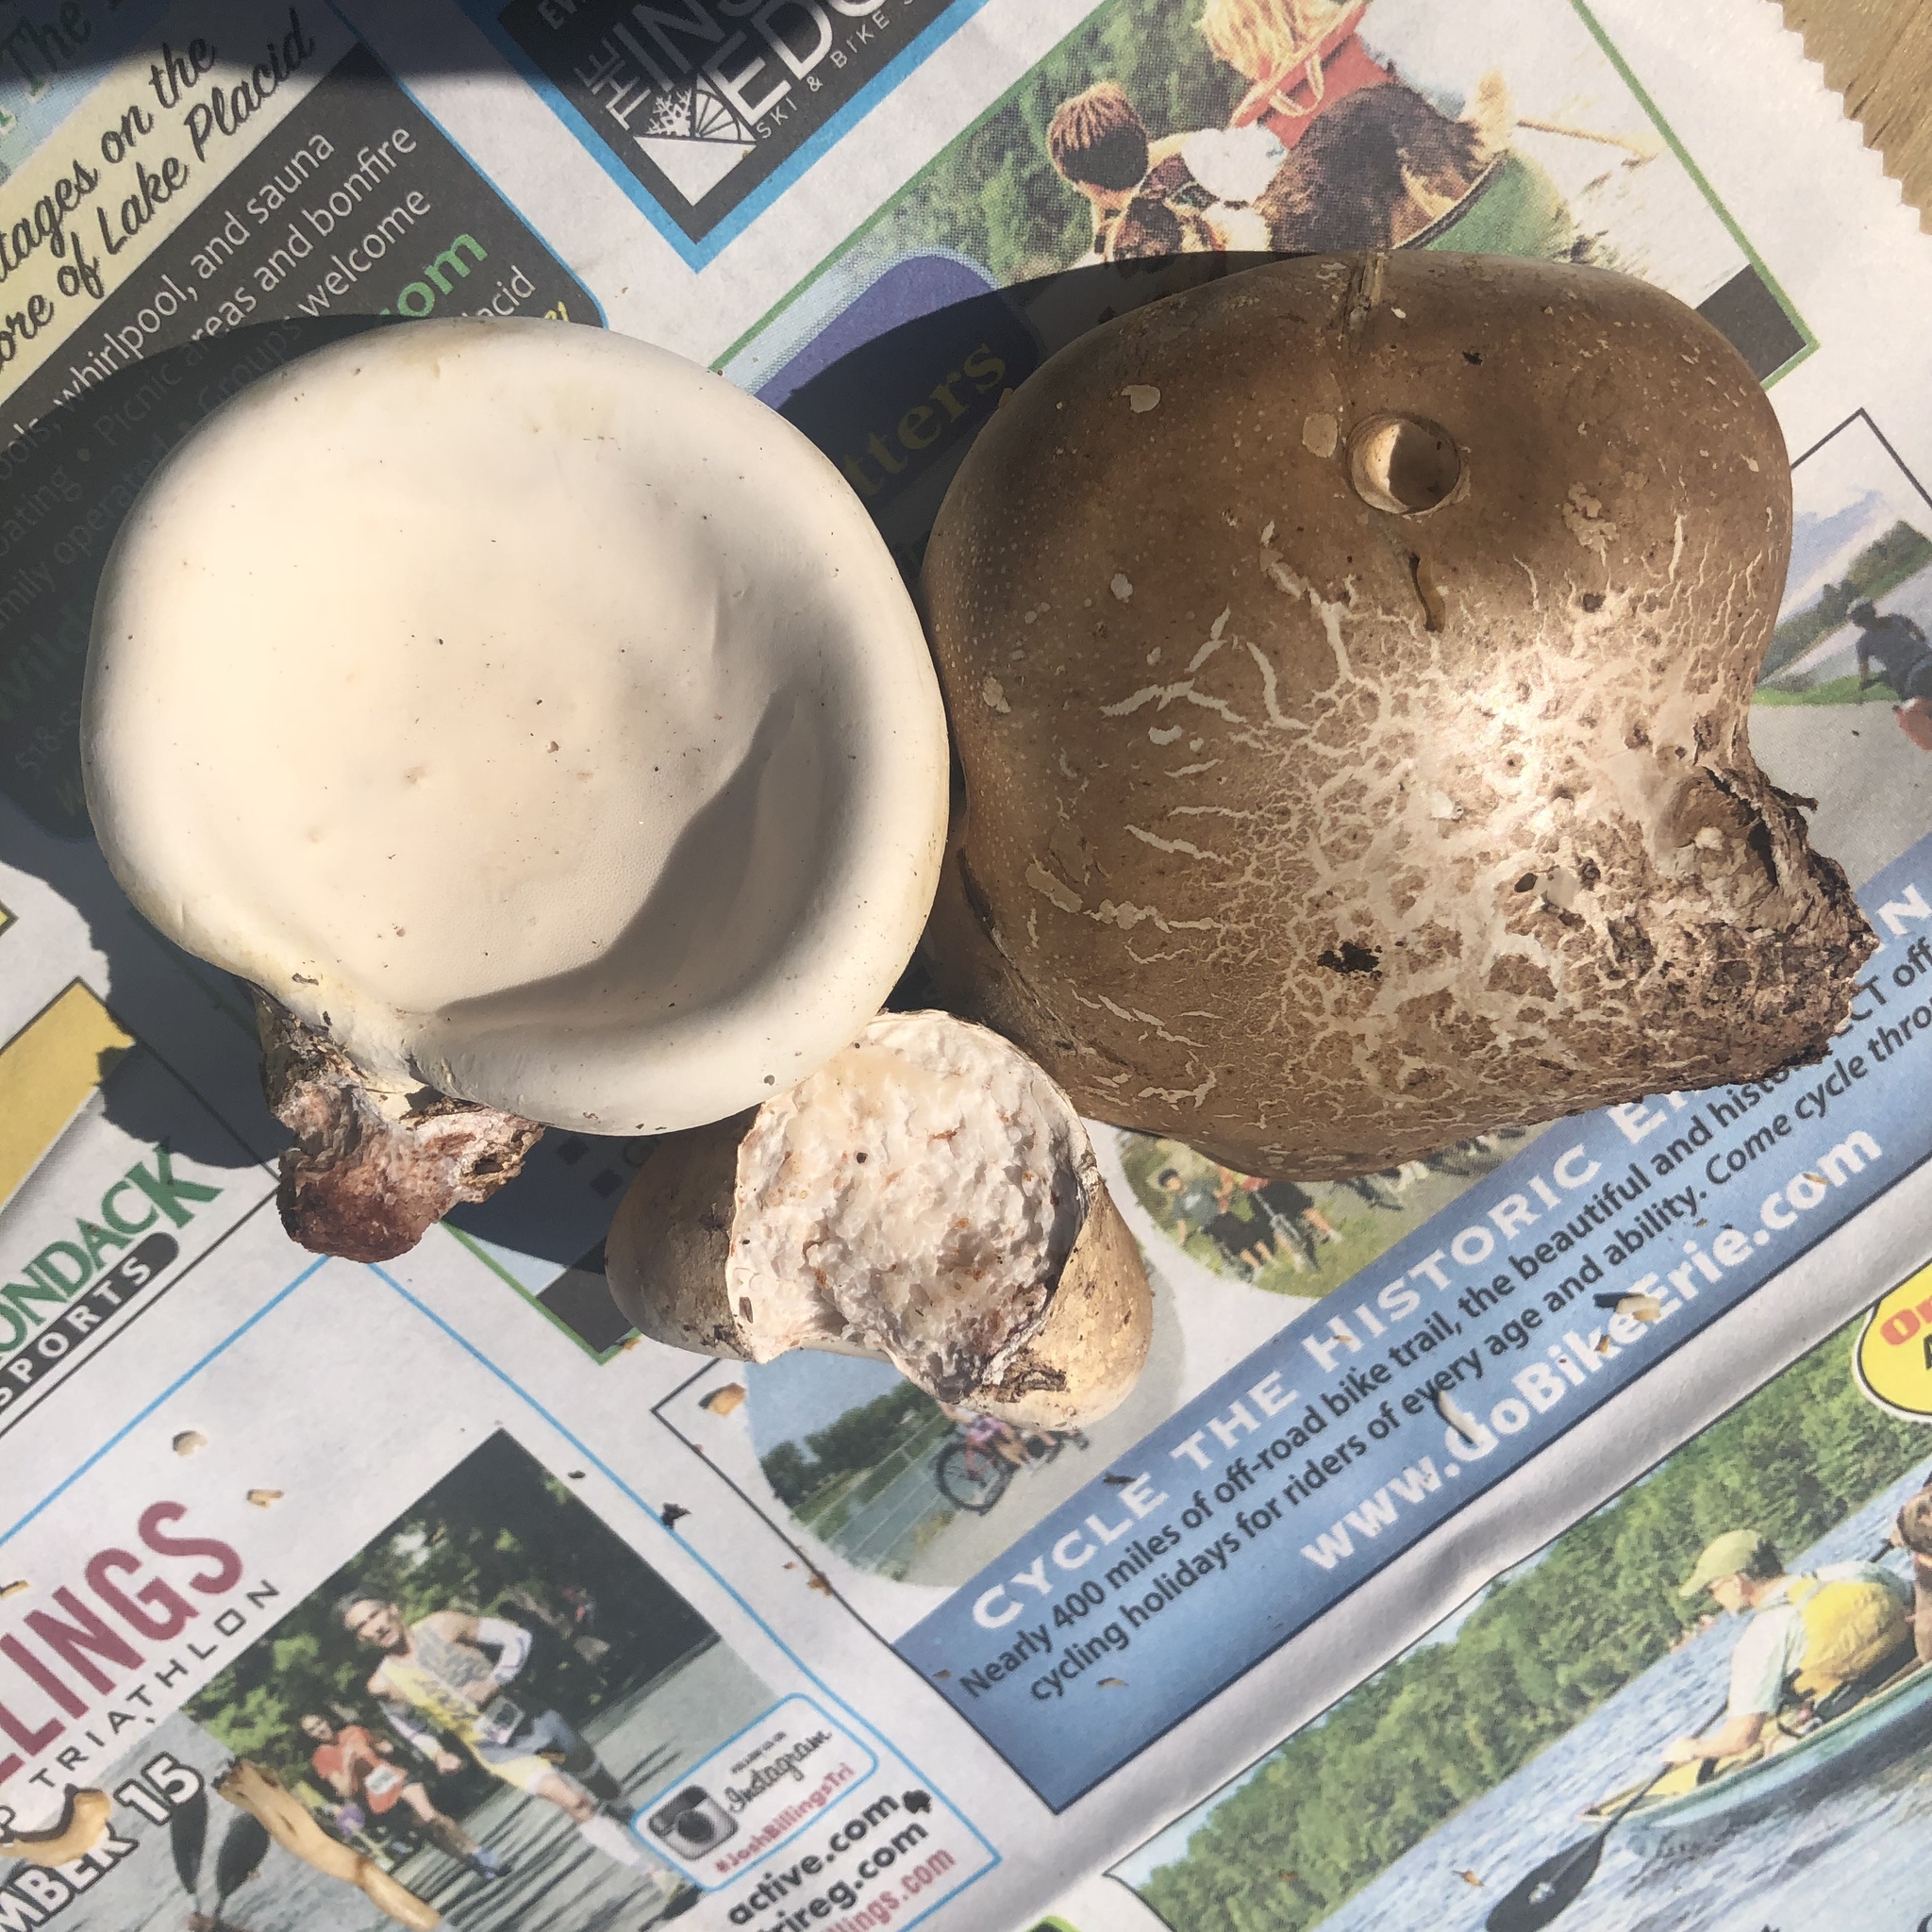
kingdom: Fungi
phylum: Basidiomycota
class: Agaricomycetes
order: Polyporales
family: Fomitopsidaceae
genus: Fomitopsis
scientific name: Fomitopsis betulina
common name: Birch polypore
